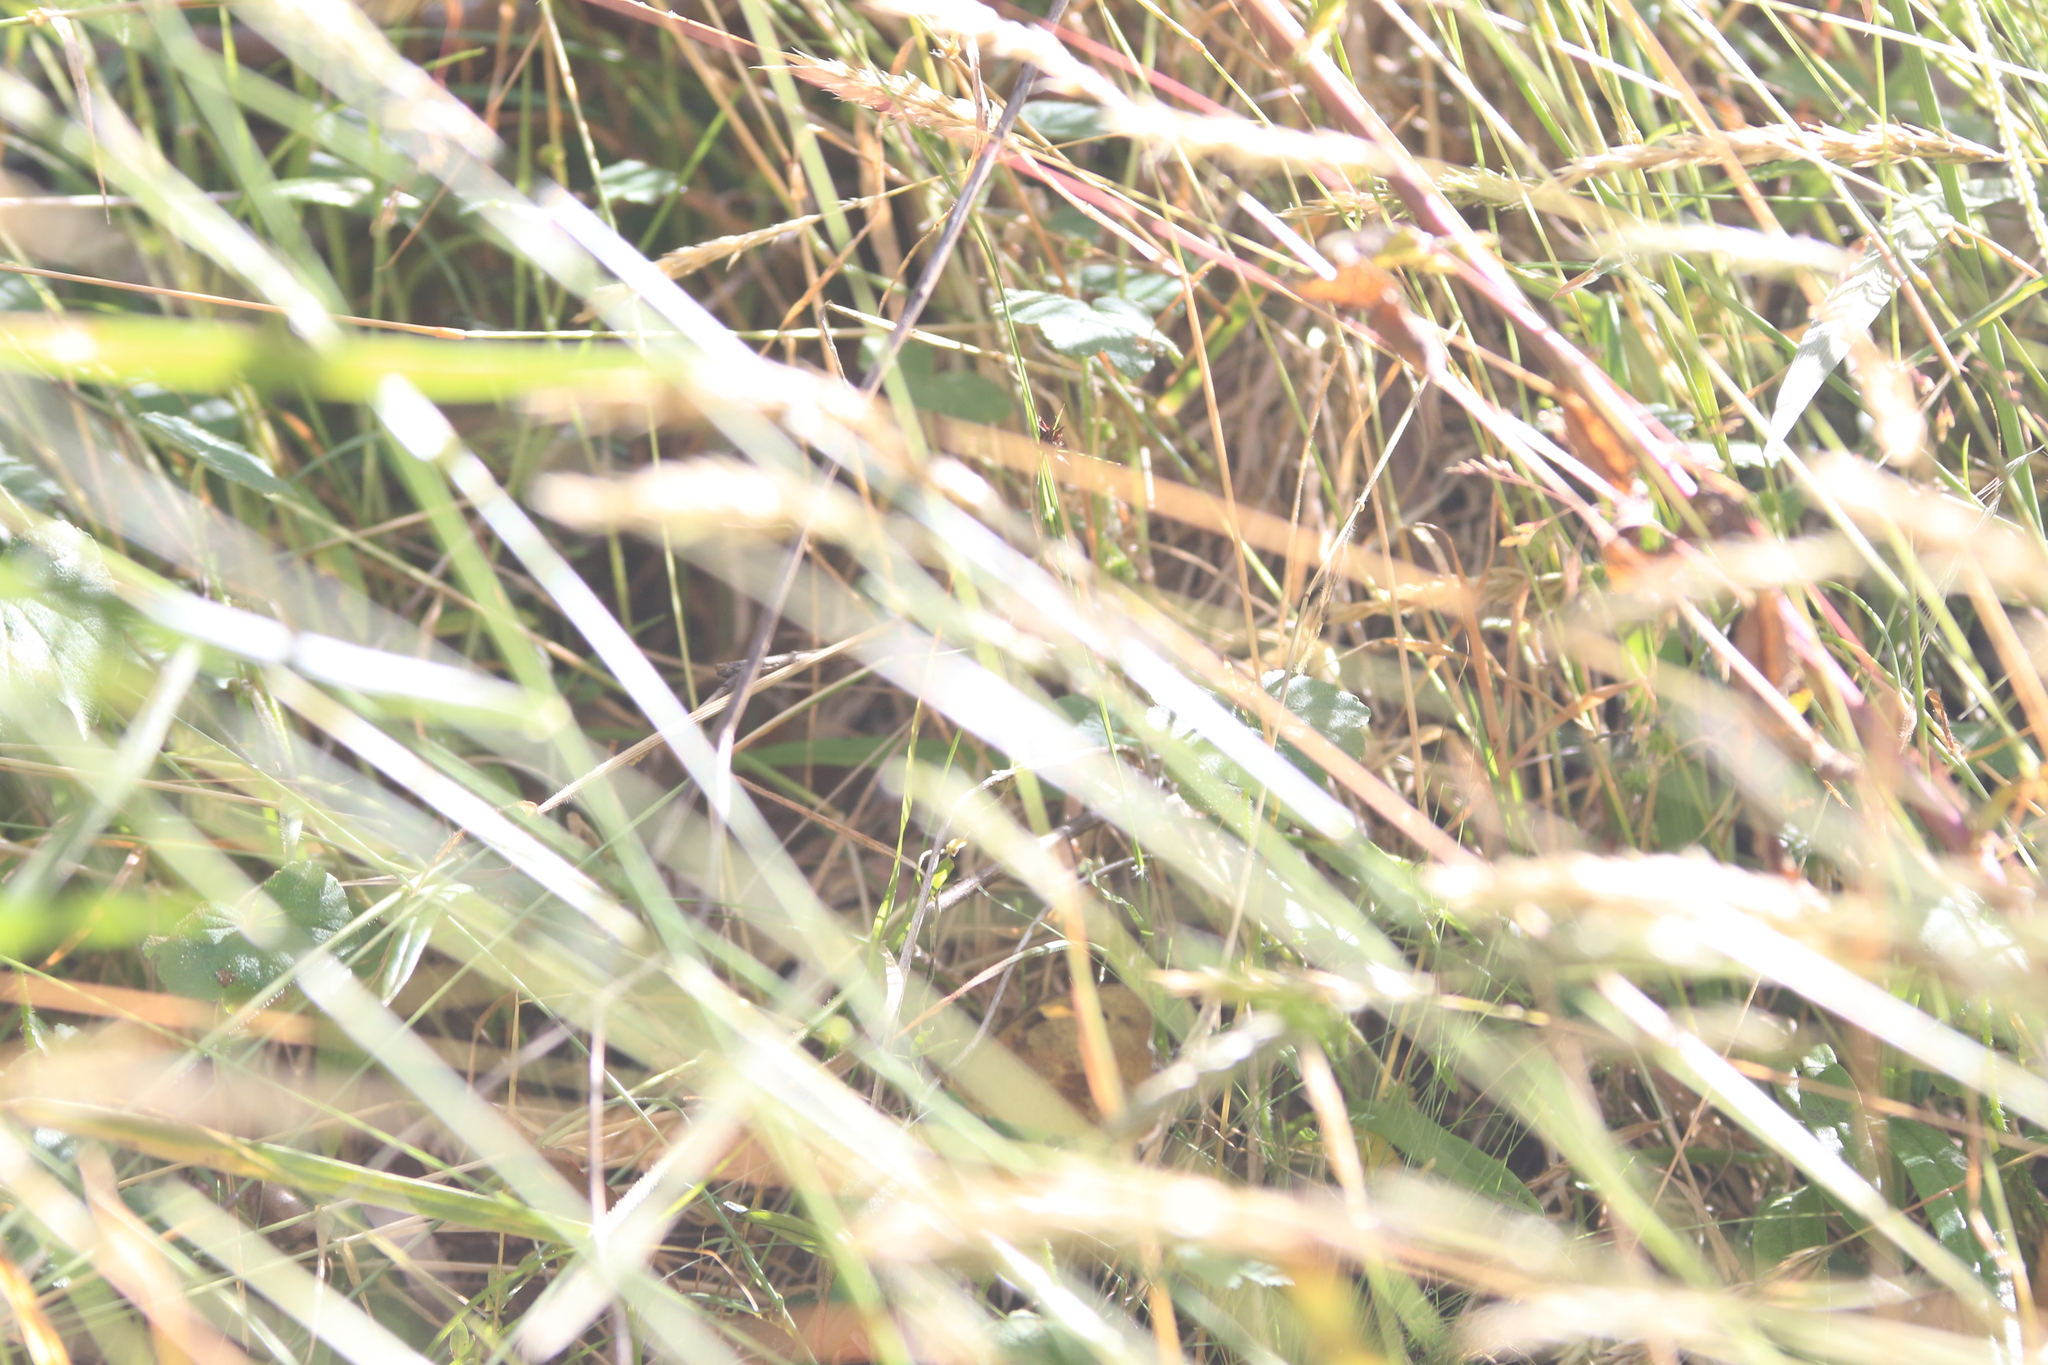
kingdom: Animalia
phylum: Arthropoda
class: Insecta
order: Lepidoptera
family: Nymphalidae
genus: Heteronympha
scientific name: Heteronympha merope
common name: Common brown
